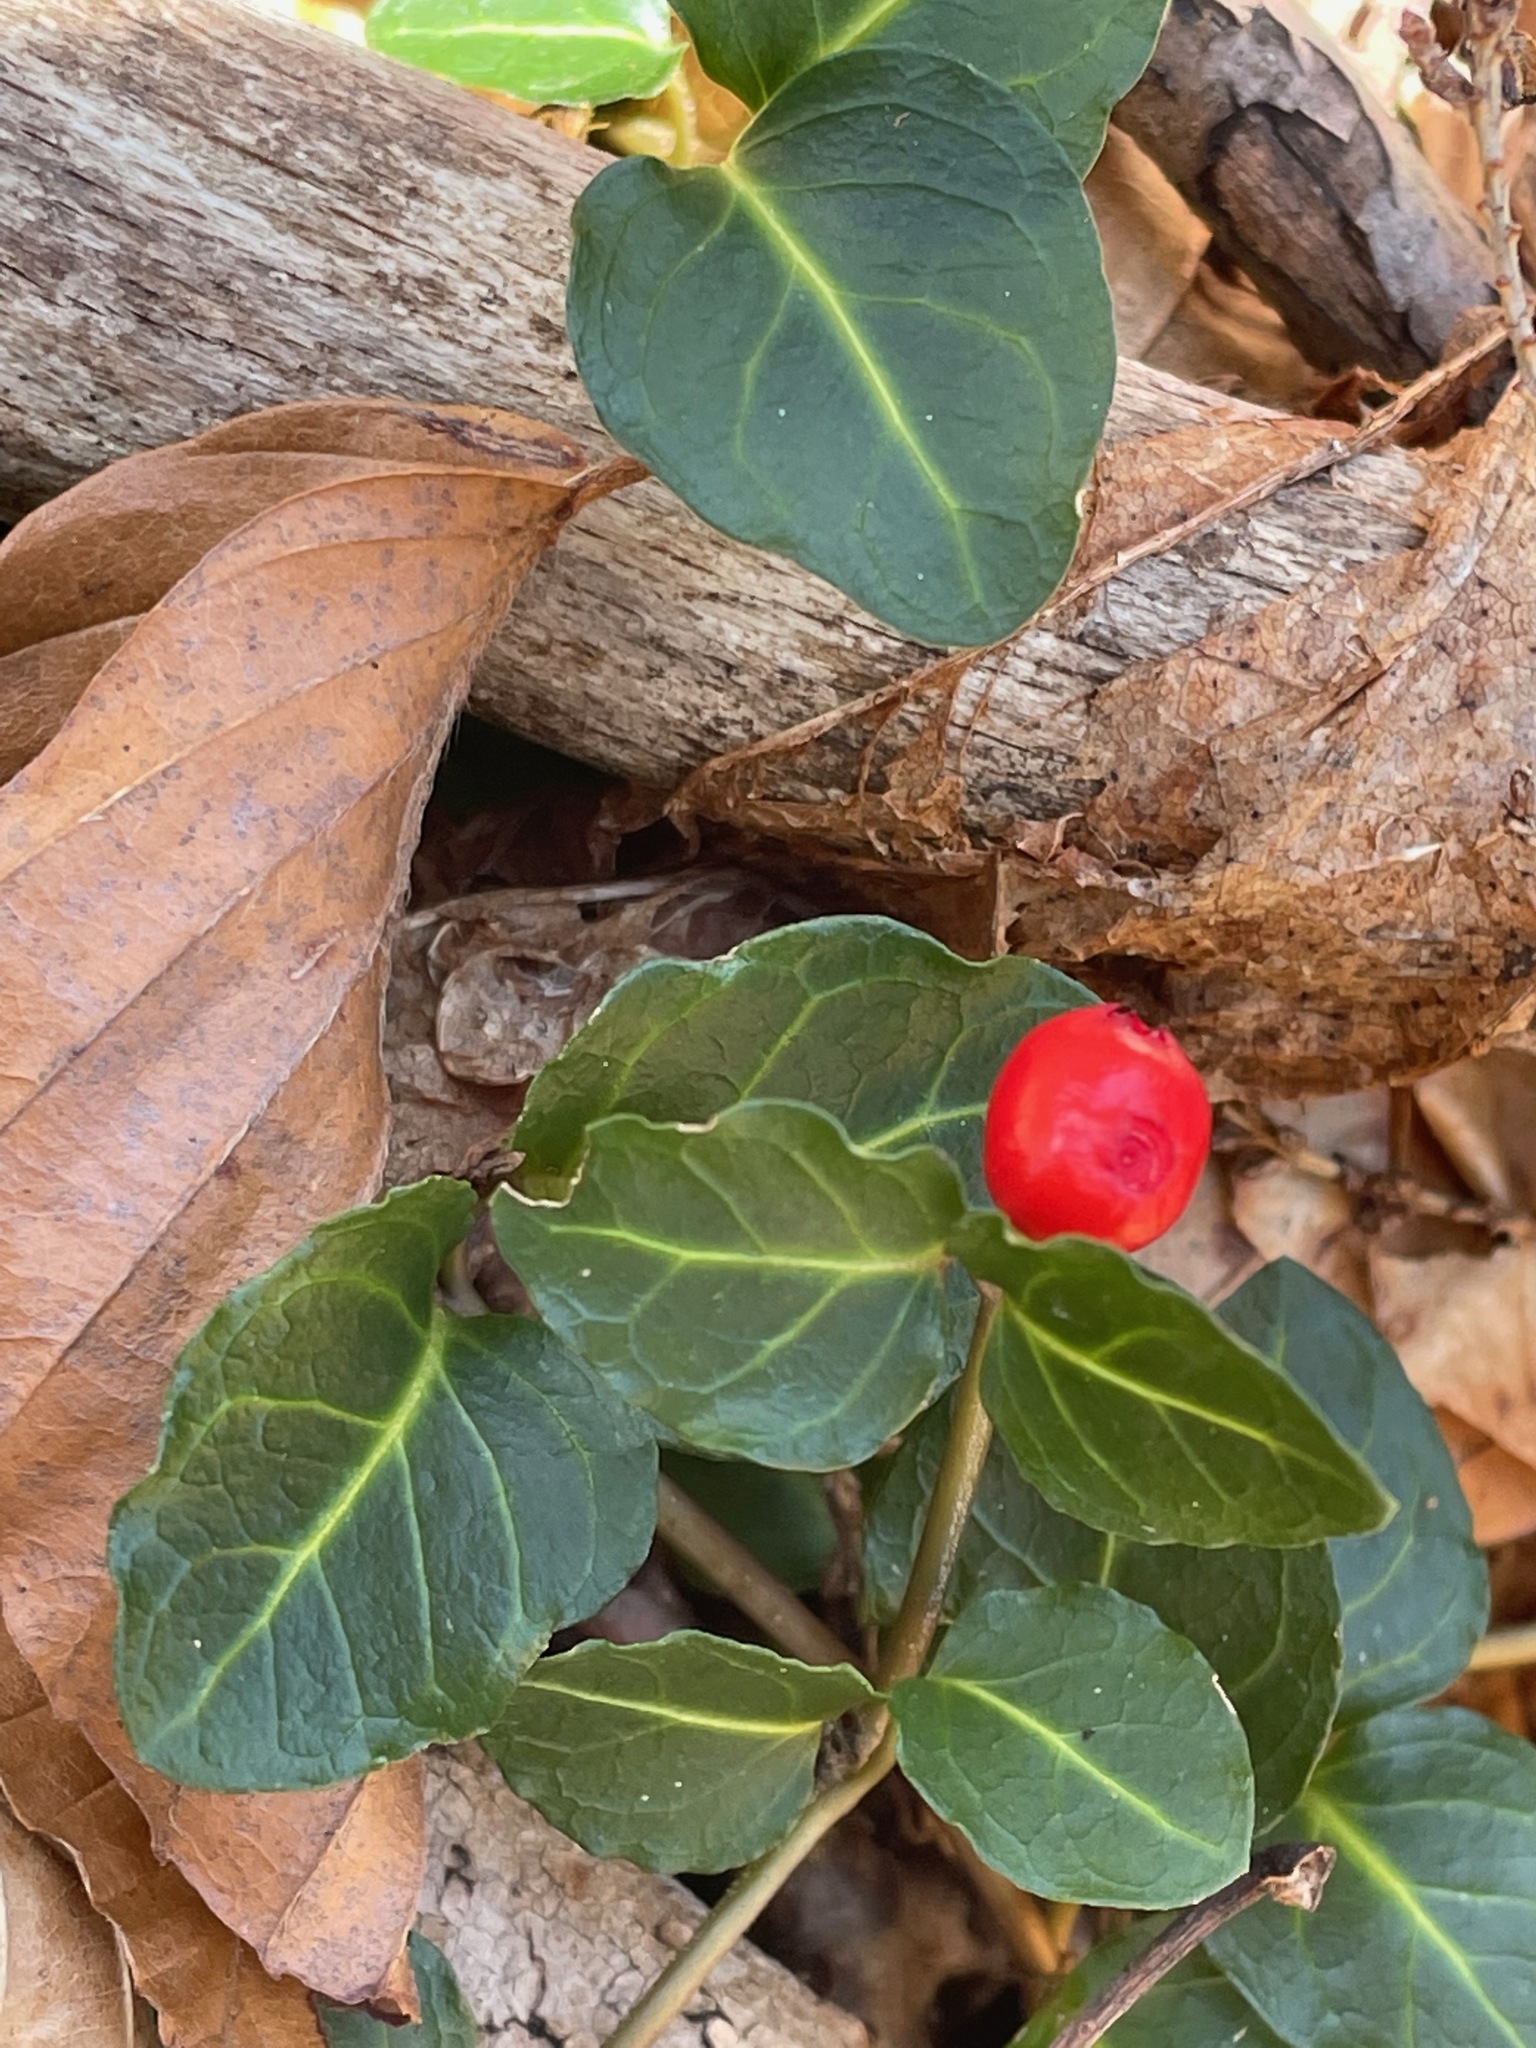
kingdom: Plantae
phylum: Tracheophyta
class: Magnoliopsida
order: Gentianales
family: Rubiaceae
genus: Mitchella
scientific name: Mitchella repens
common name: Partridge-berry
